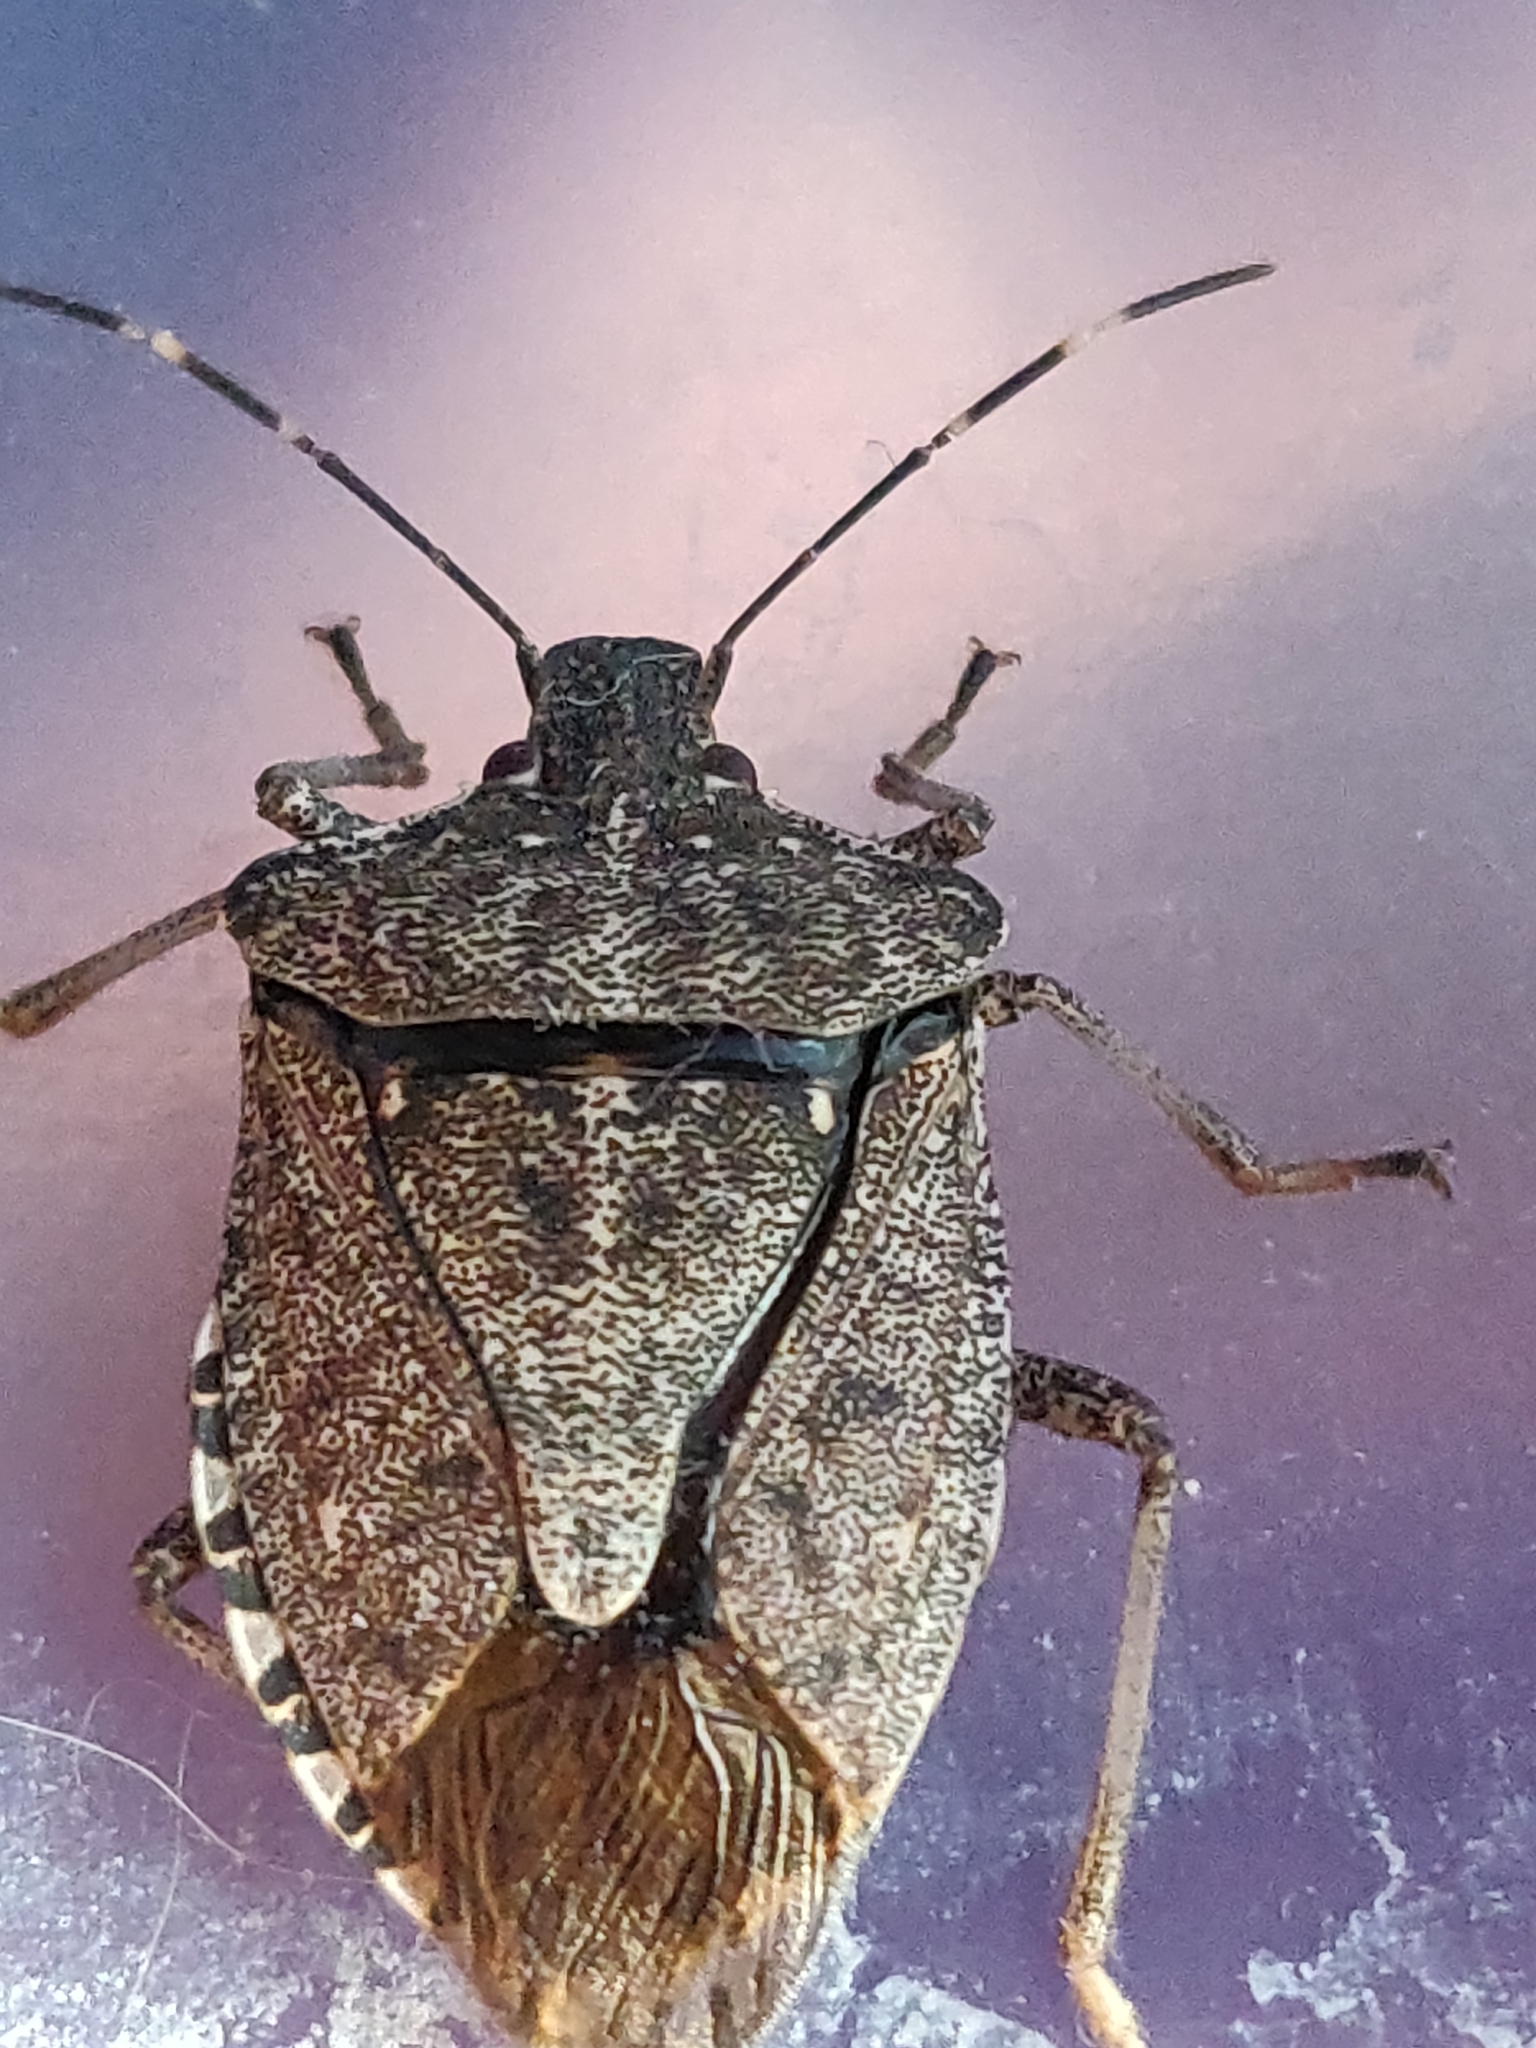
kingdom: Animalia
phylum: Arthropoda
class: Insecta
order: Hemiptera
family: Pentatomidae
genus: Halyomorpha
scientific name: Halyomorpha halys
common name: Brown marmorated stink bug
